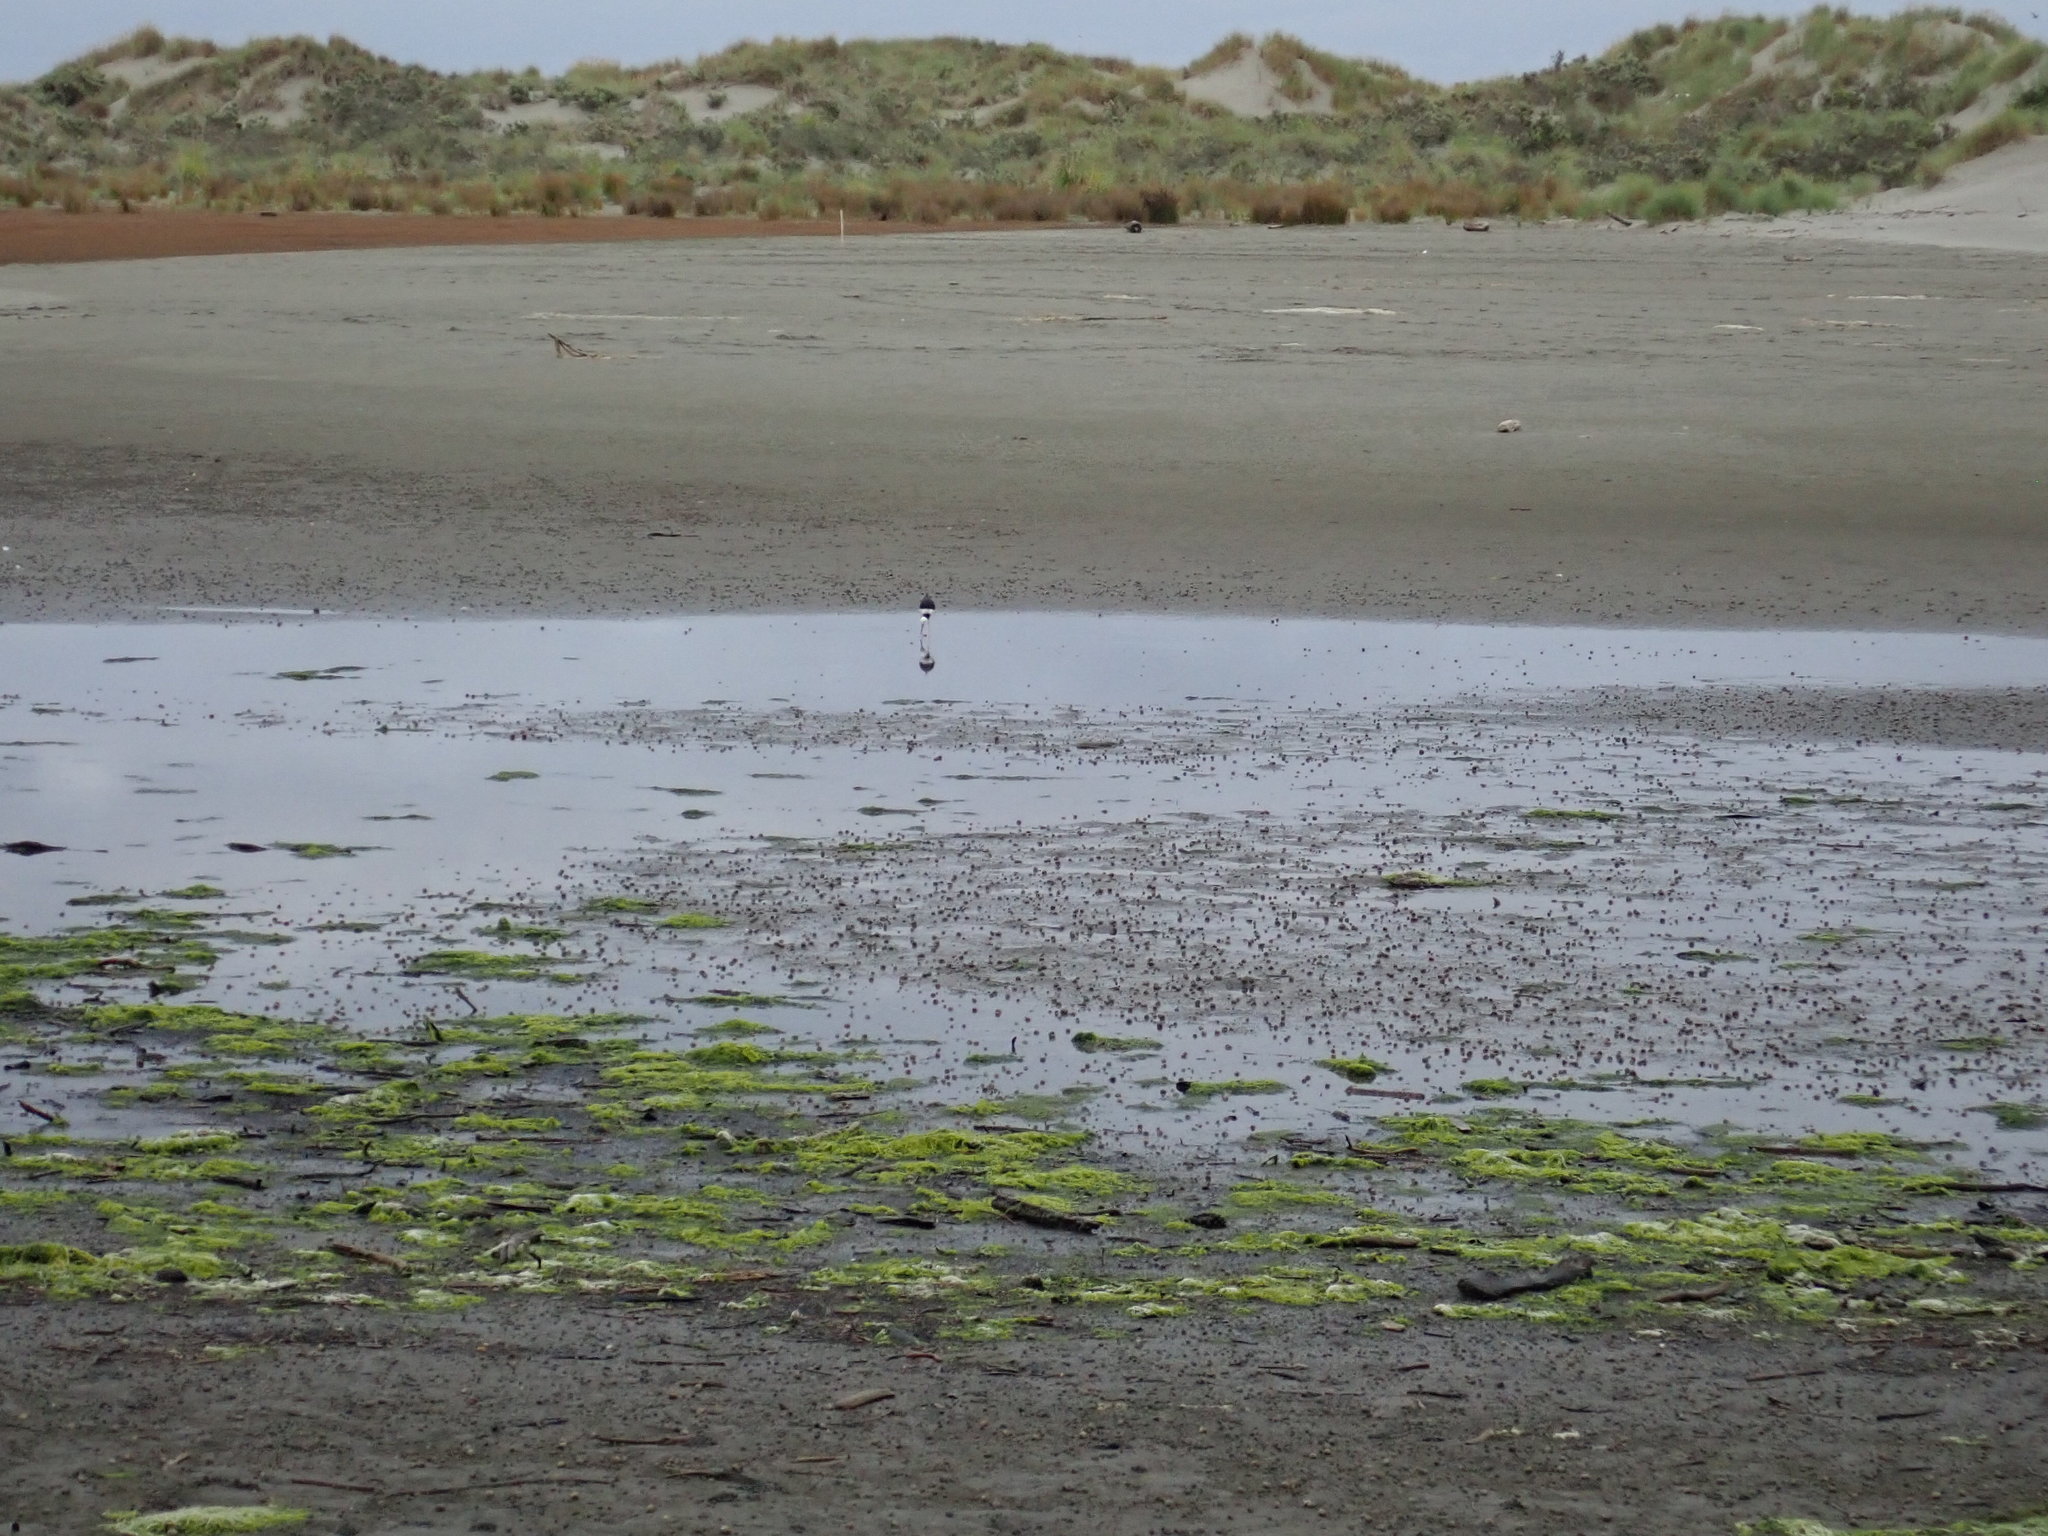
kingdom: Animalia
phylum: Chordata
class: Aves
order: Charadriiformes
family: Recurvirostridae
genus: Himantopus
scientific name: Himantopus leucocephalus
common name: White-headed stilt
